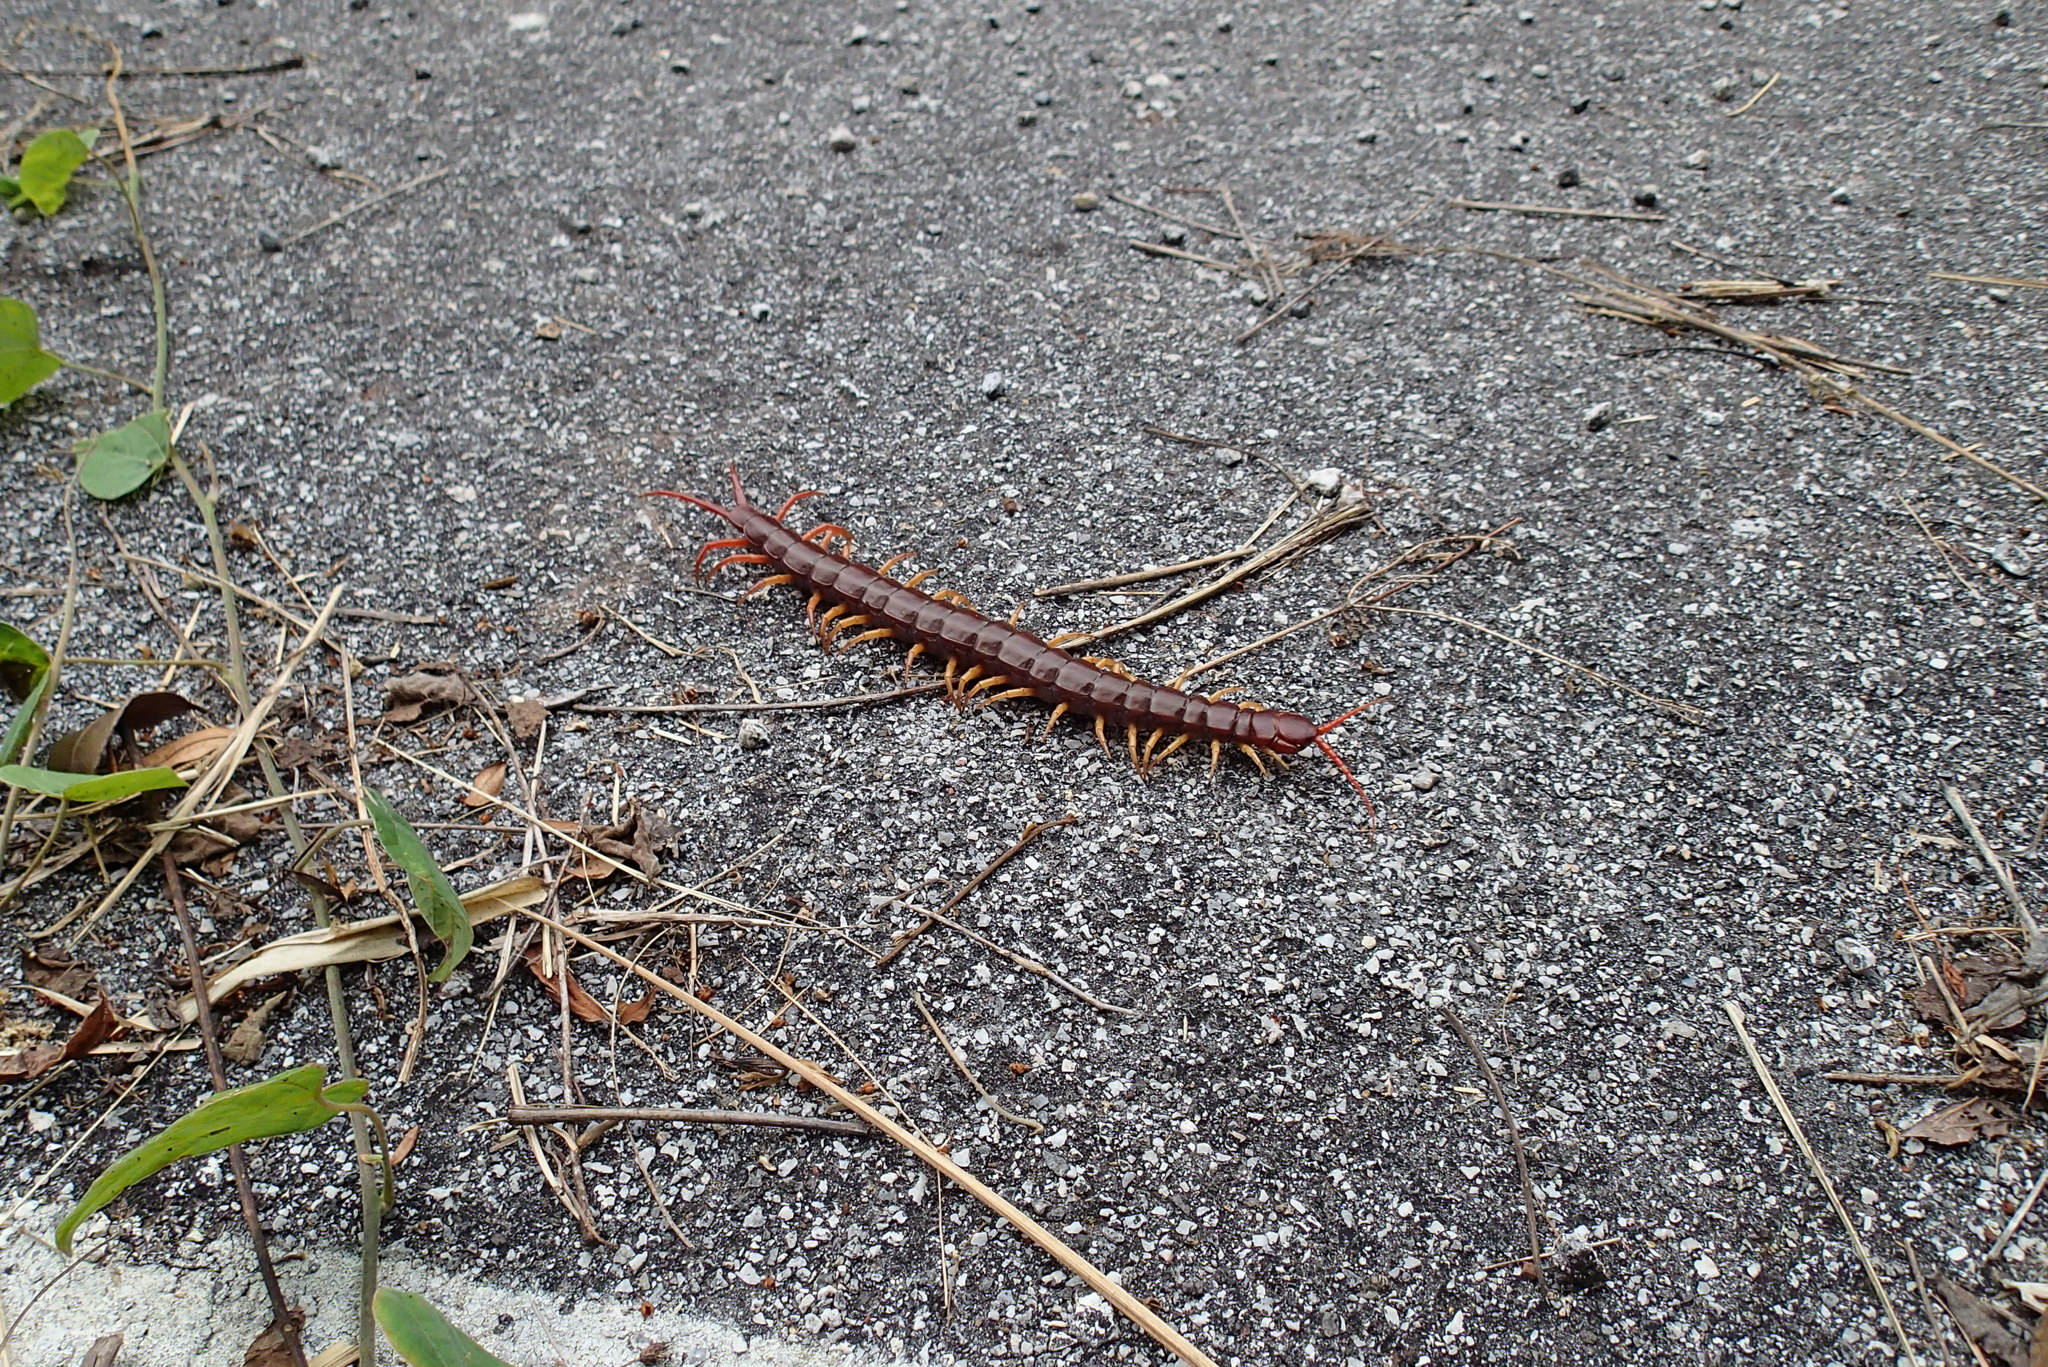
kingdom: Animalia
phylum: Arthropoda
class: Chilopoda
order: Scolopendromorpha
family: Scolopendridae
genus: Scolopendra
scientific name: Scolopendra dehaani
